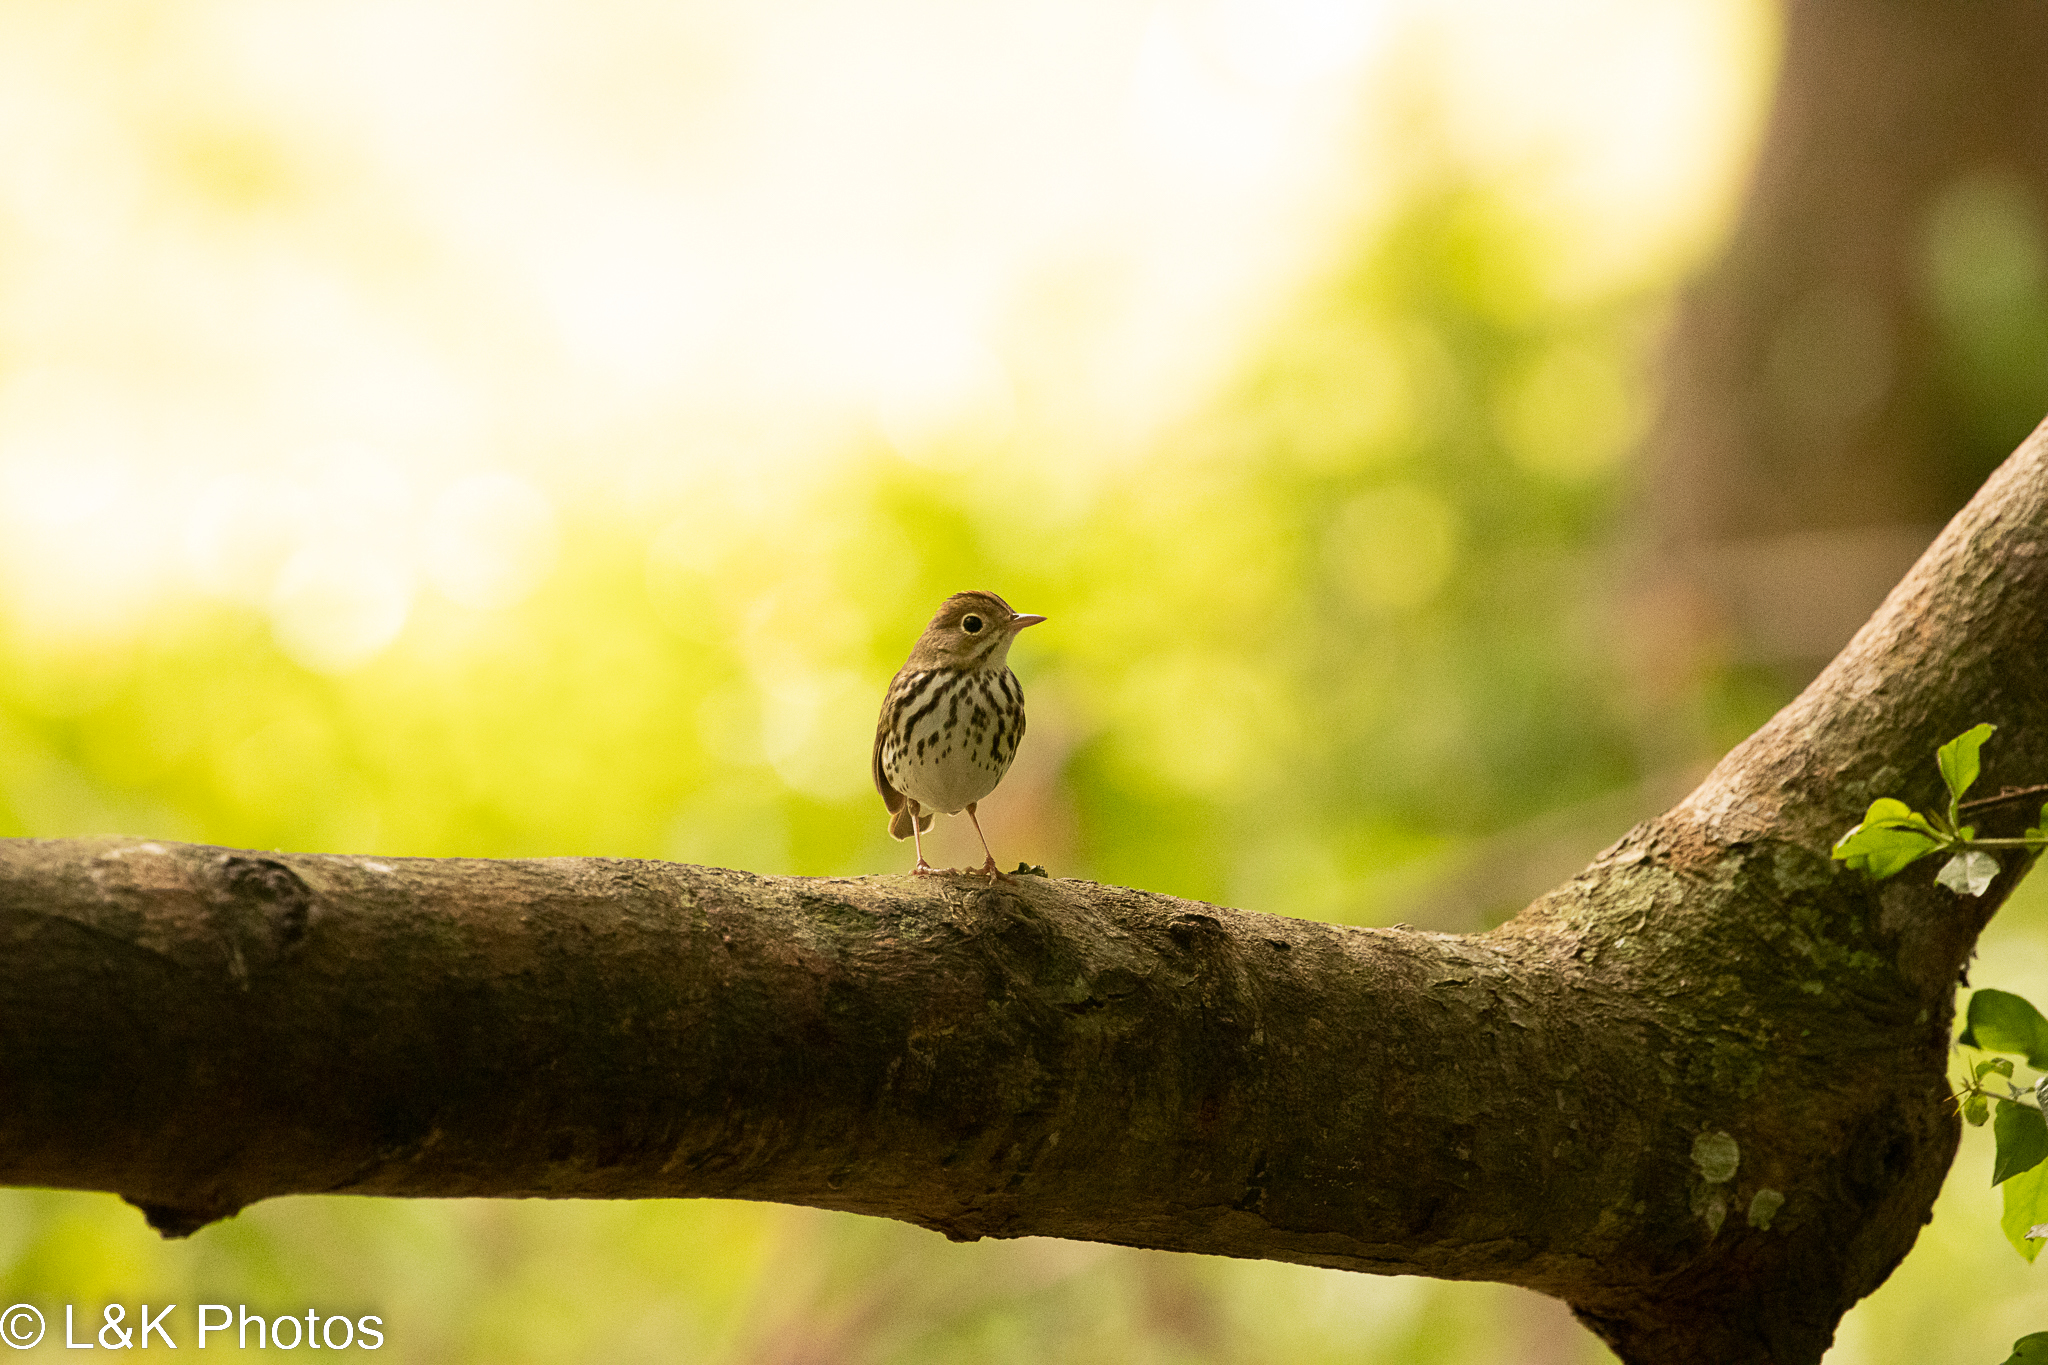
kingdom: Animalia
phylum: Chordata
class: Aves
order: Passeriformes
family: Parulidae
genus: Seiurus
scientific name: Seiurus aurocapilla
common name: Ovenbird
